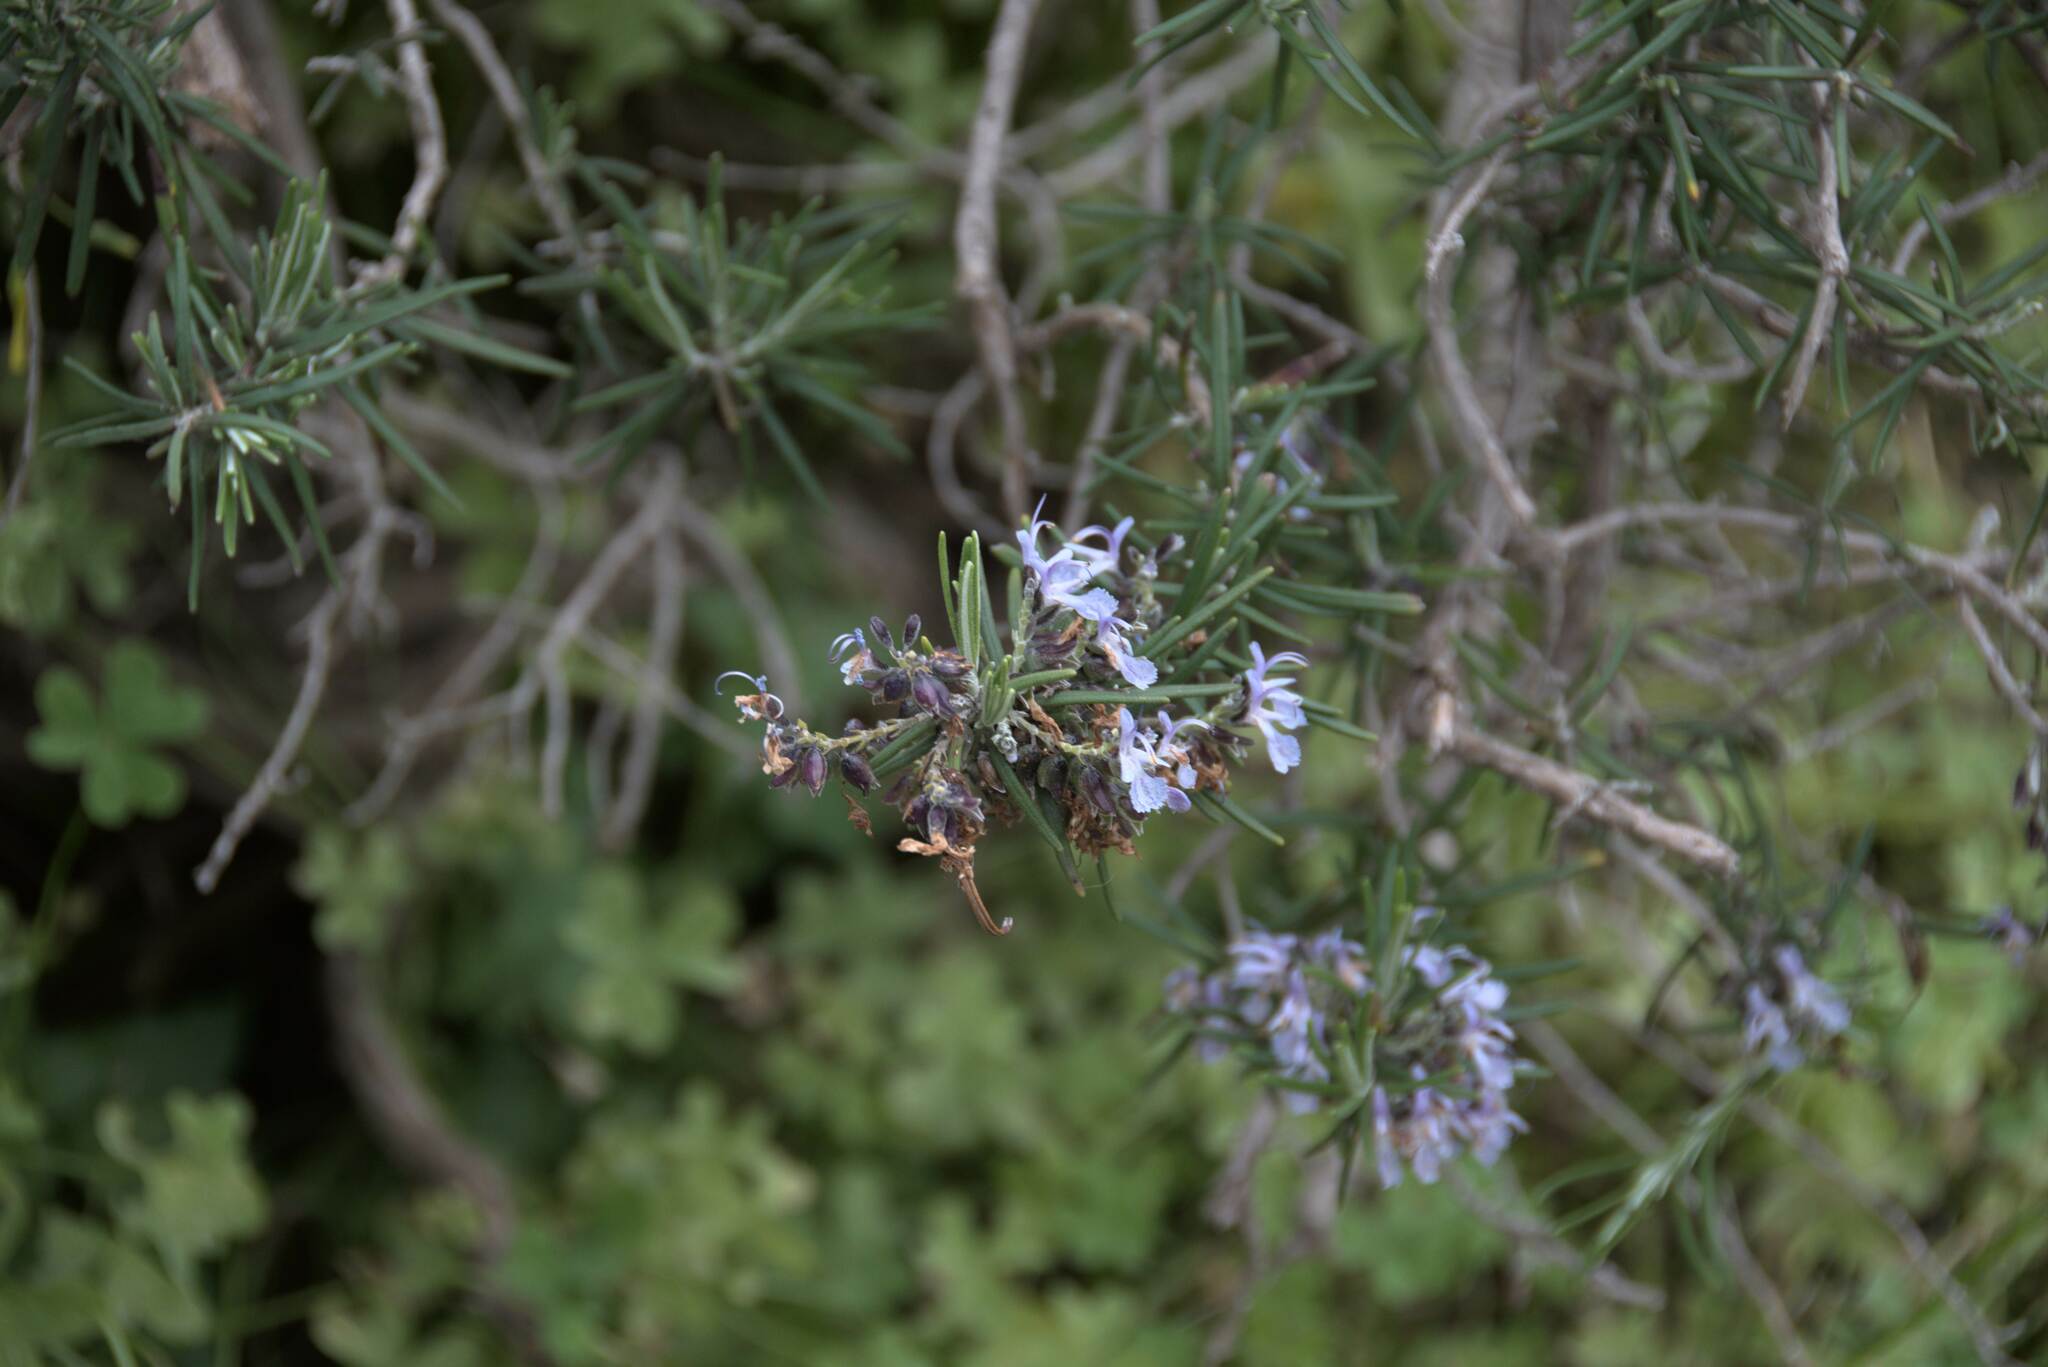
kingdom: Plantae
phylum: Tracheophyta
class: Magnoliopsida
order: Lamiales
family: Lamiaceae
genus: Salvia
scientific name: Salvia rosmarinus
